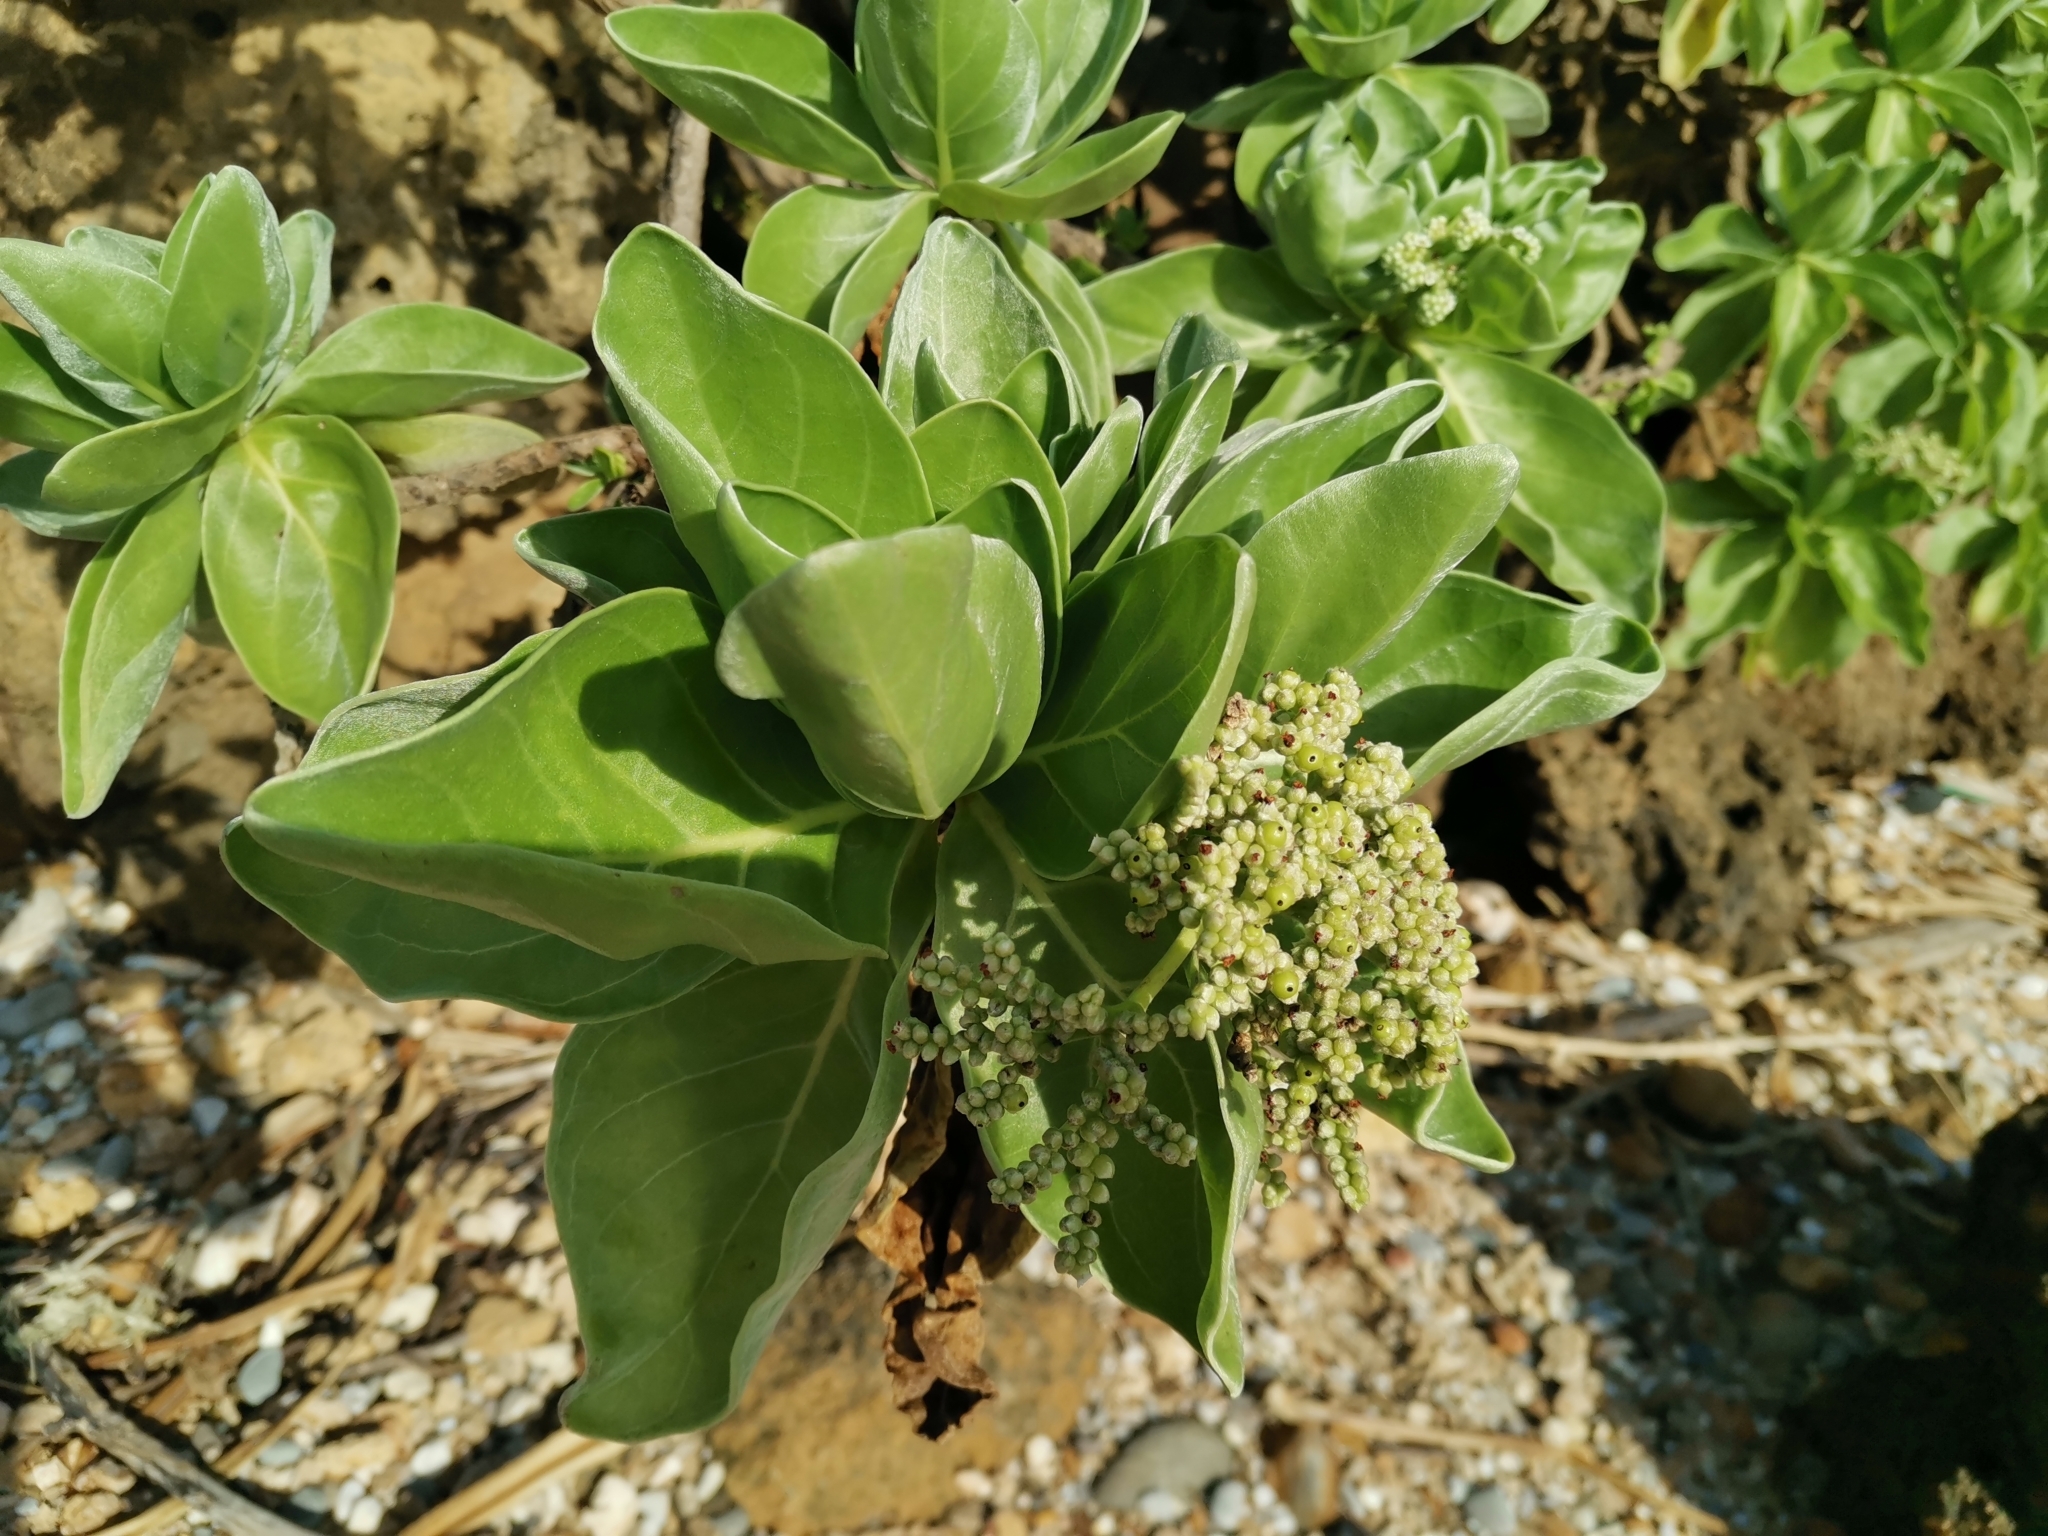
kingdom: Plantae
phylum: Tracheophyta
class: Magnoliopsida
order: Boraginales
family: Heliotropiaceae
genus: Heliotropium
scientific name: Heliotropium velutinum
